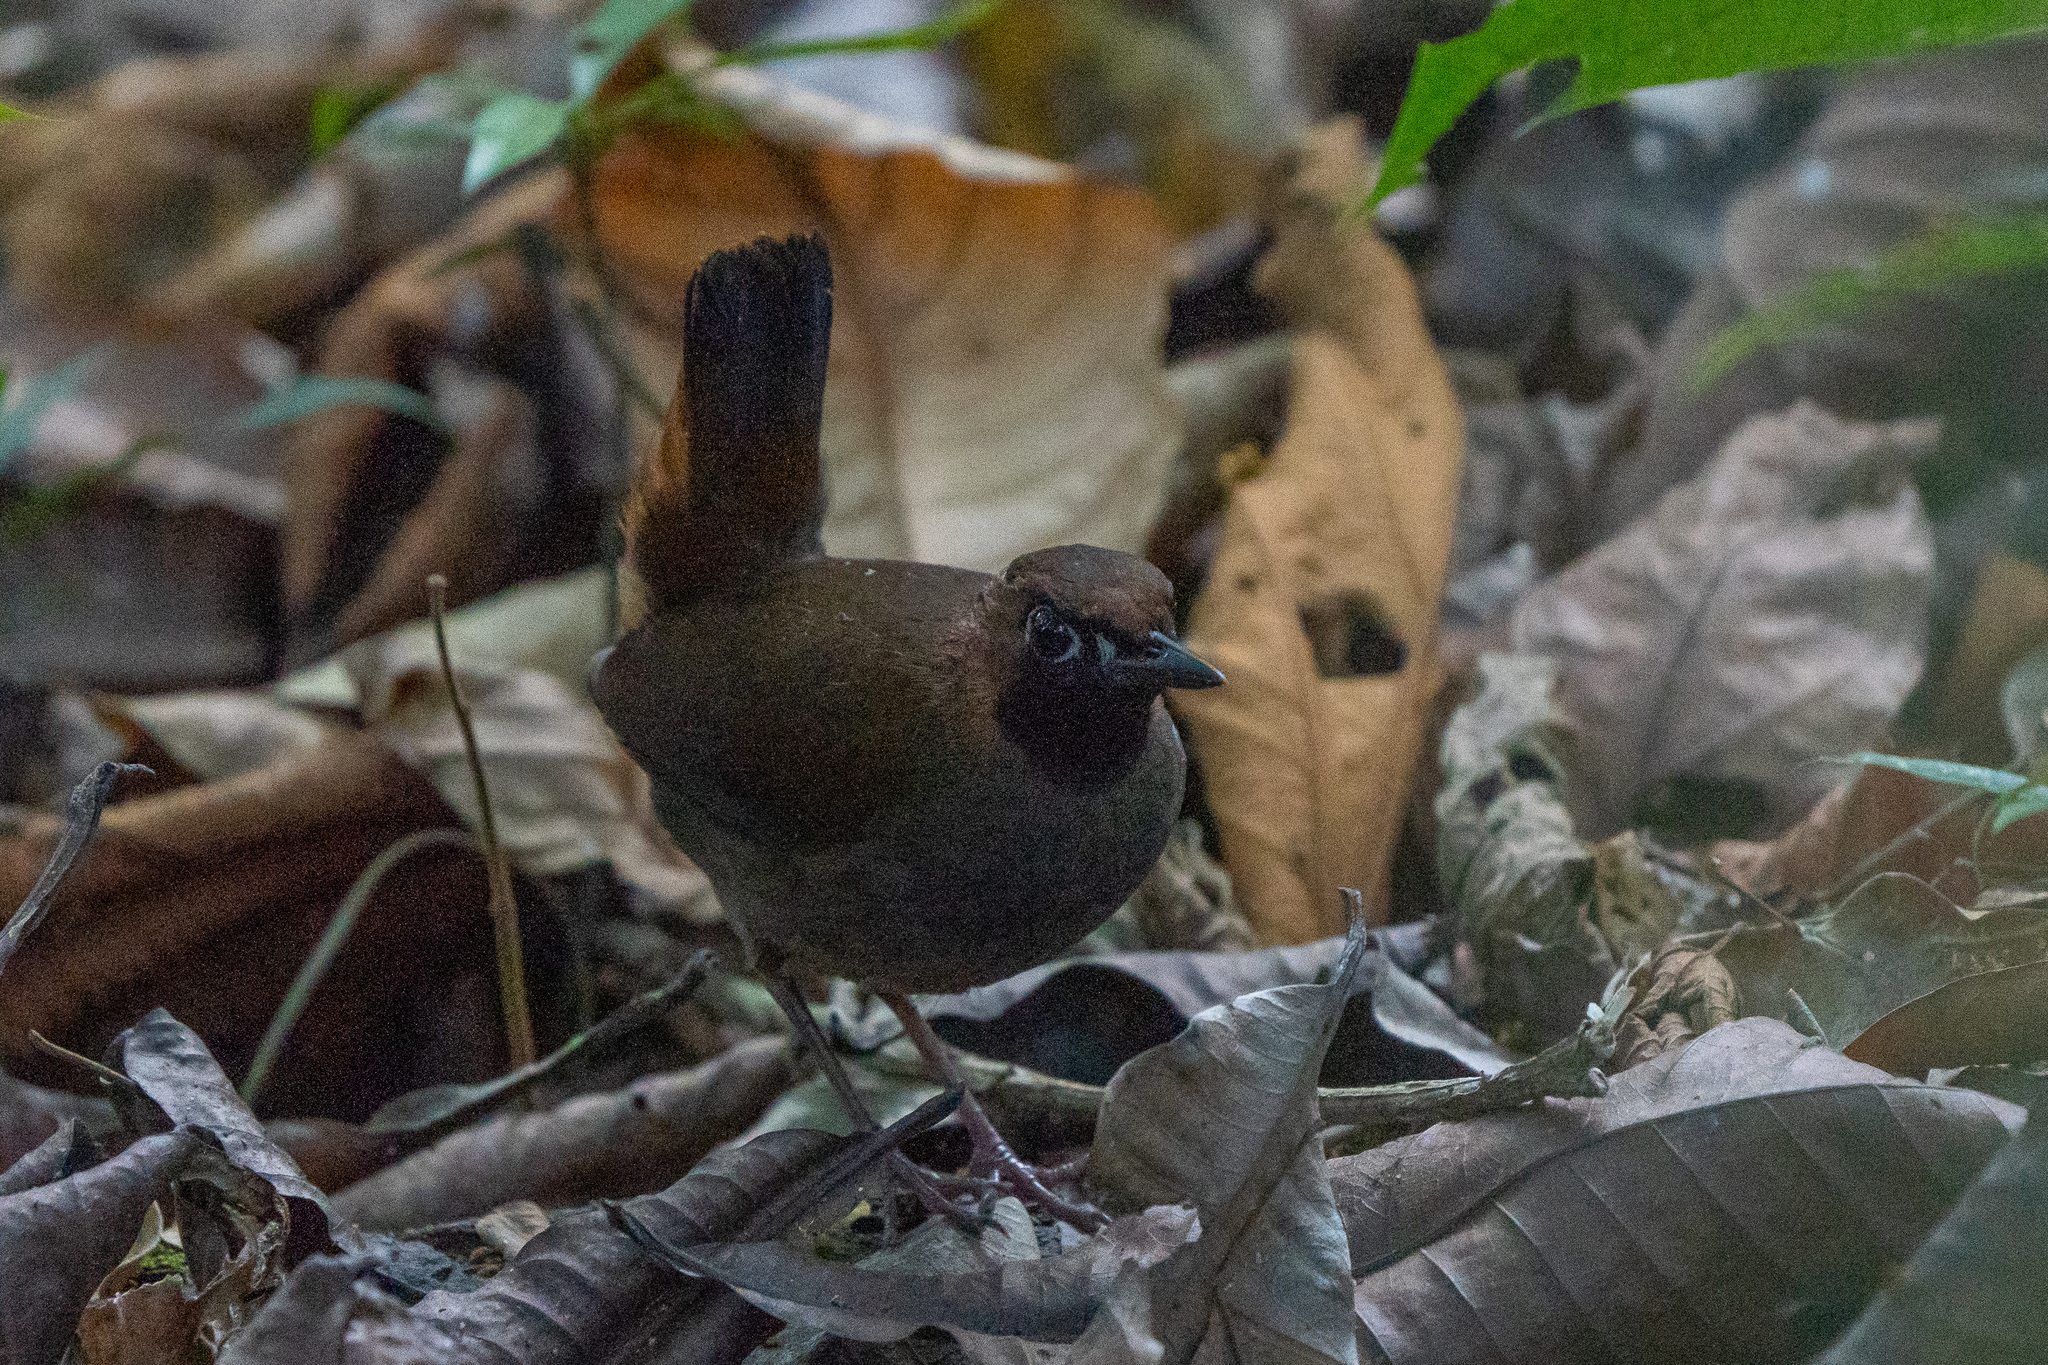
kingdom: Animalia
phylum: Chordata
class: Aves
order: Passeriformes
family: Formicariidae
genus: Formicarius
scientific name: Formicarius analis
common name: Black-faced antthrush
